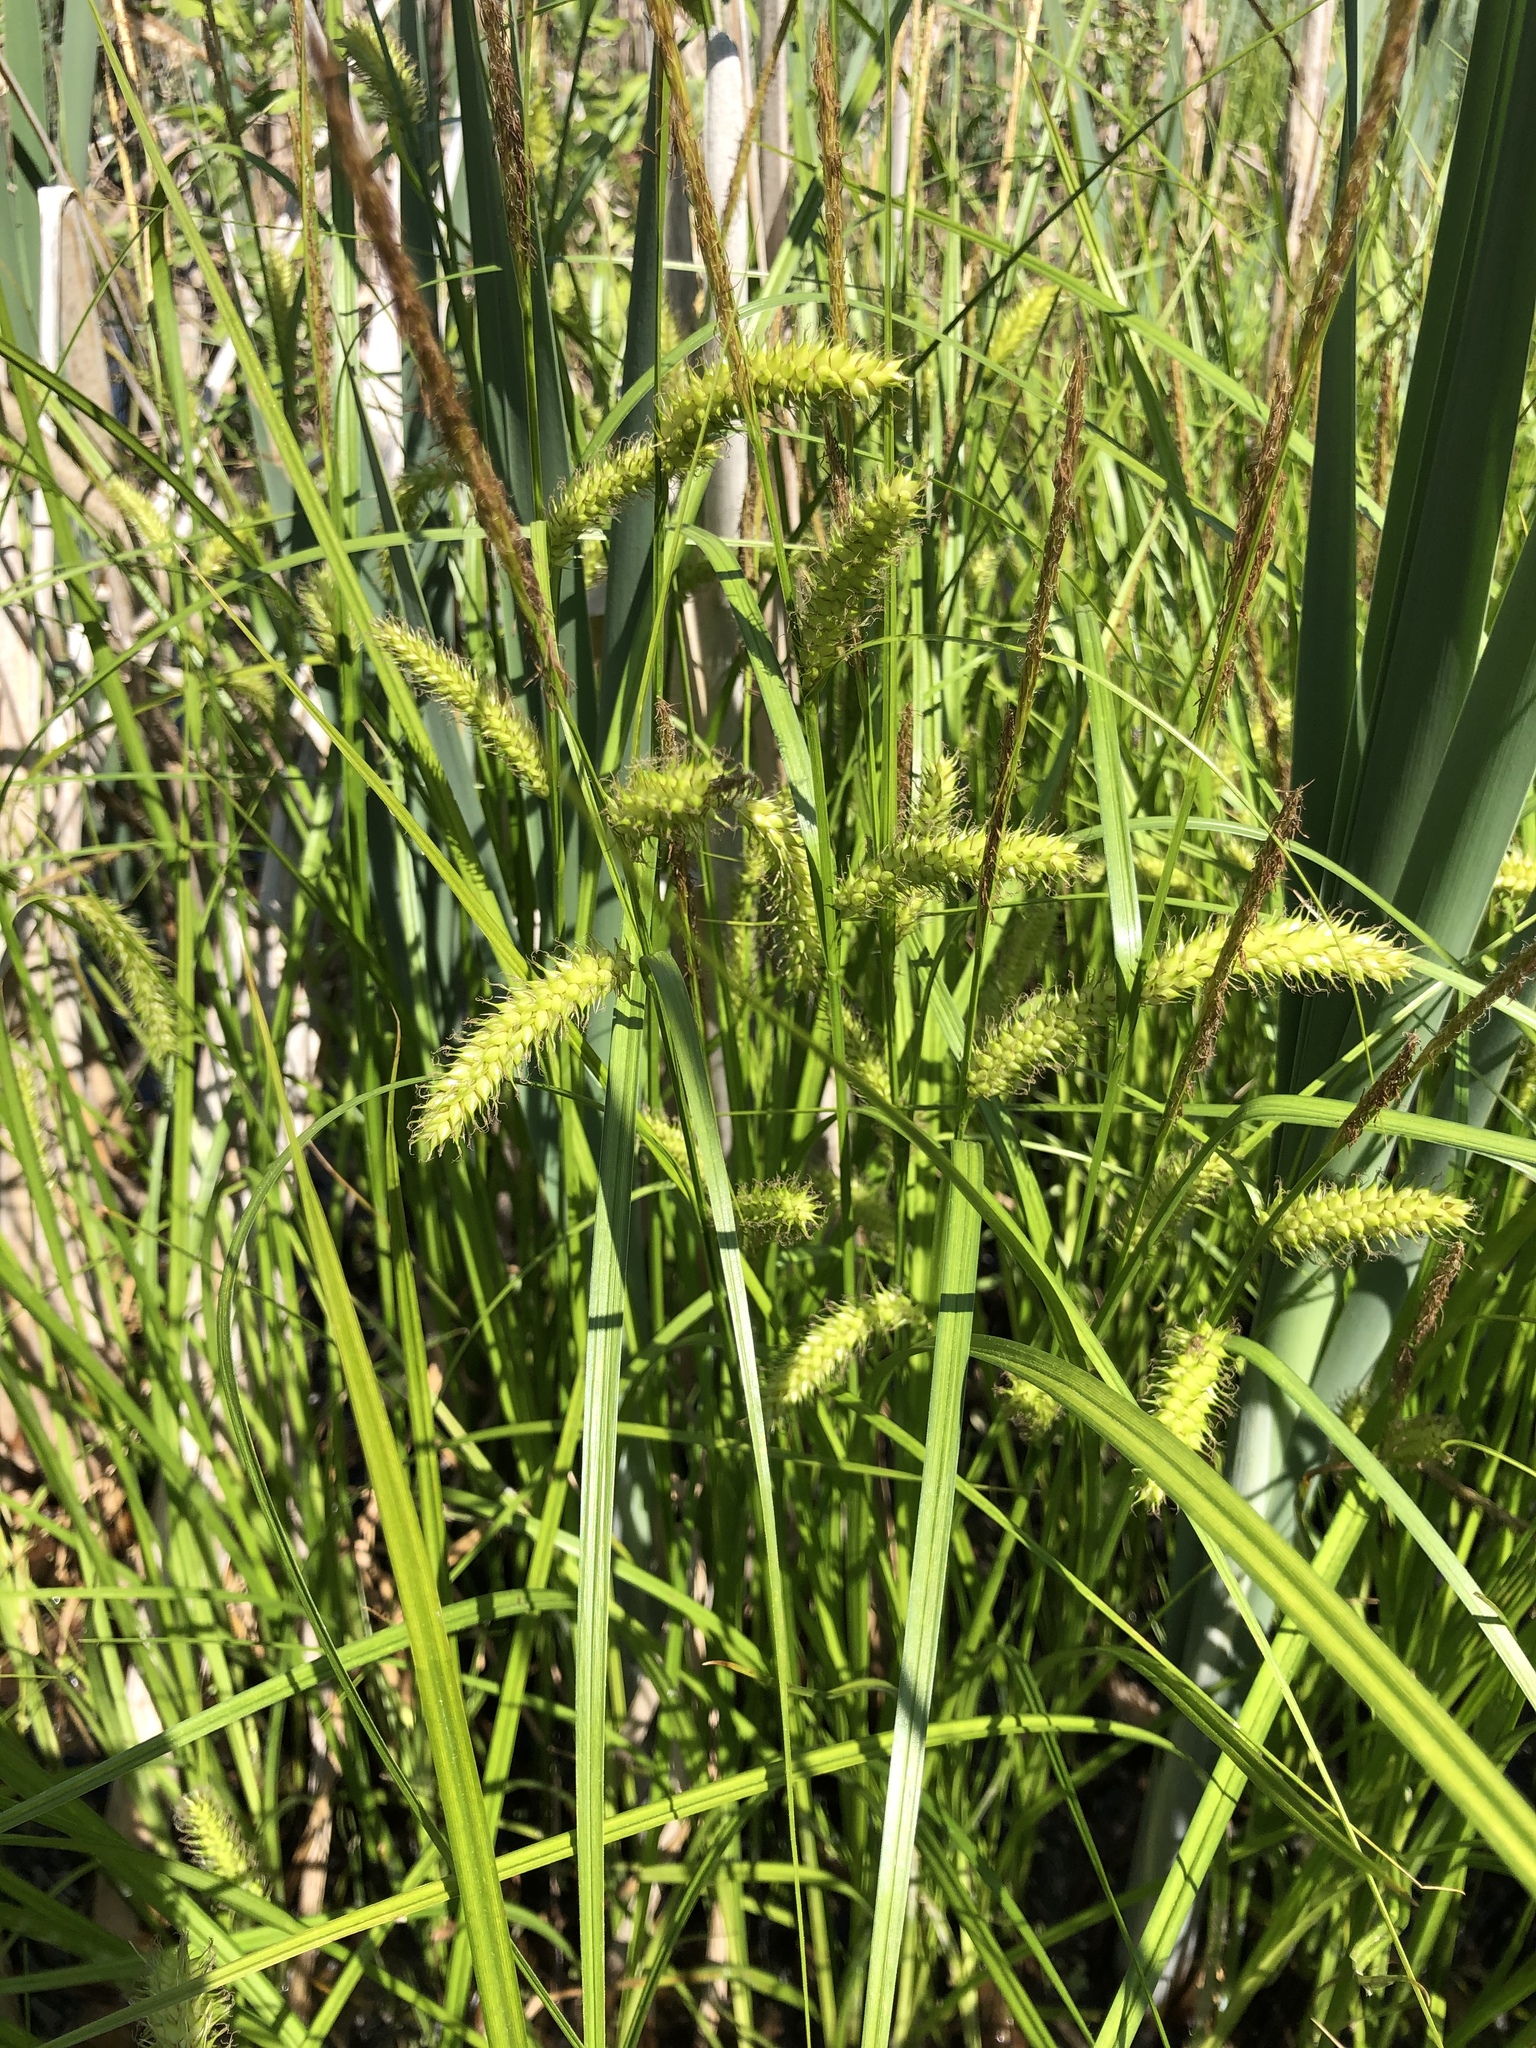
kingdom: Plantae
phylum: Tracheophyta
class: Liliopsida
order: Poales
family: Cyperaceae
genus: Carex
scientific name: Carex vesicaria
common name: Bladder-sedge
